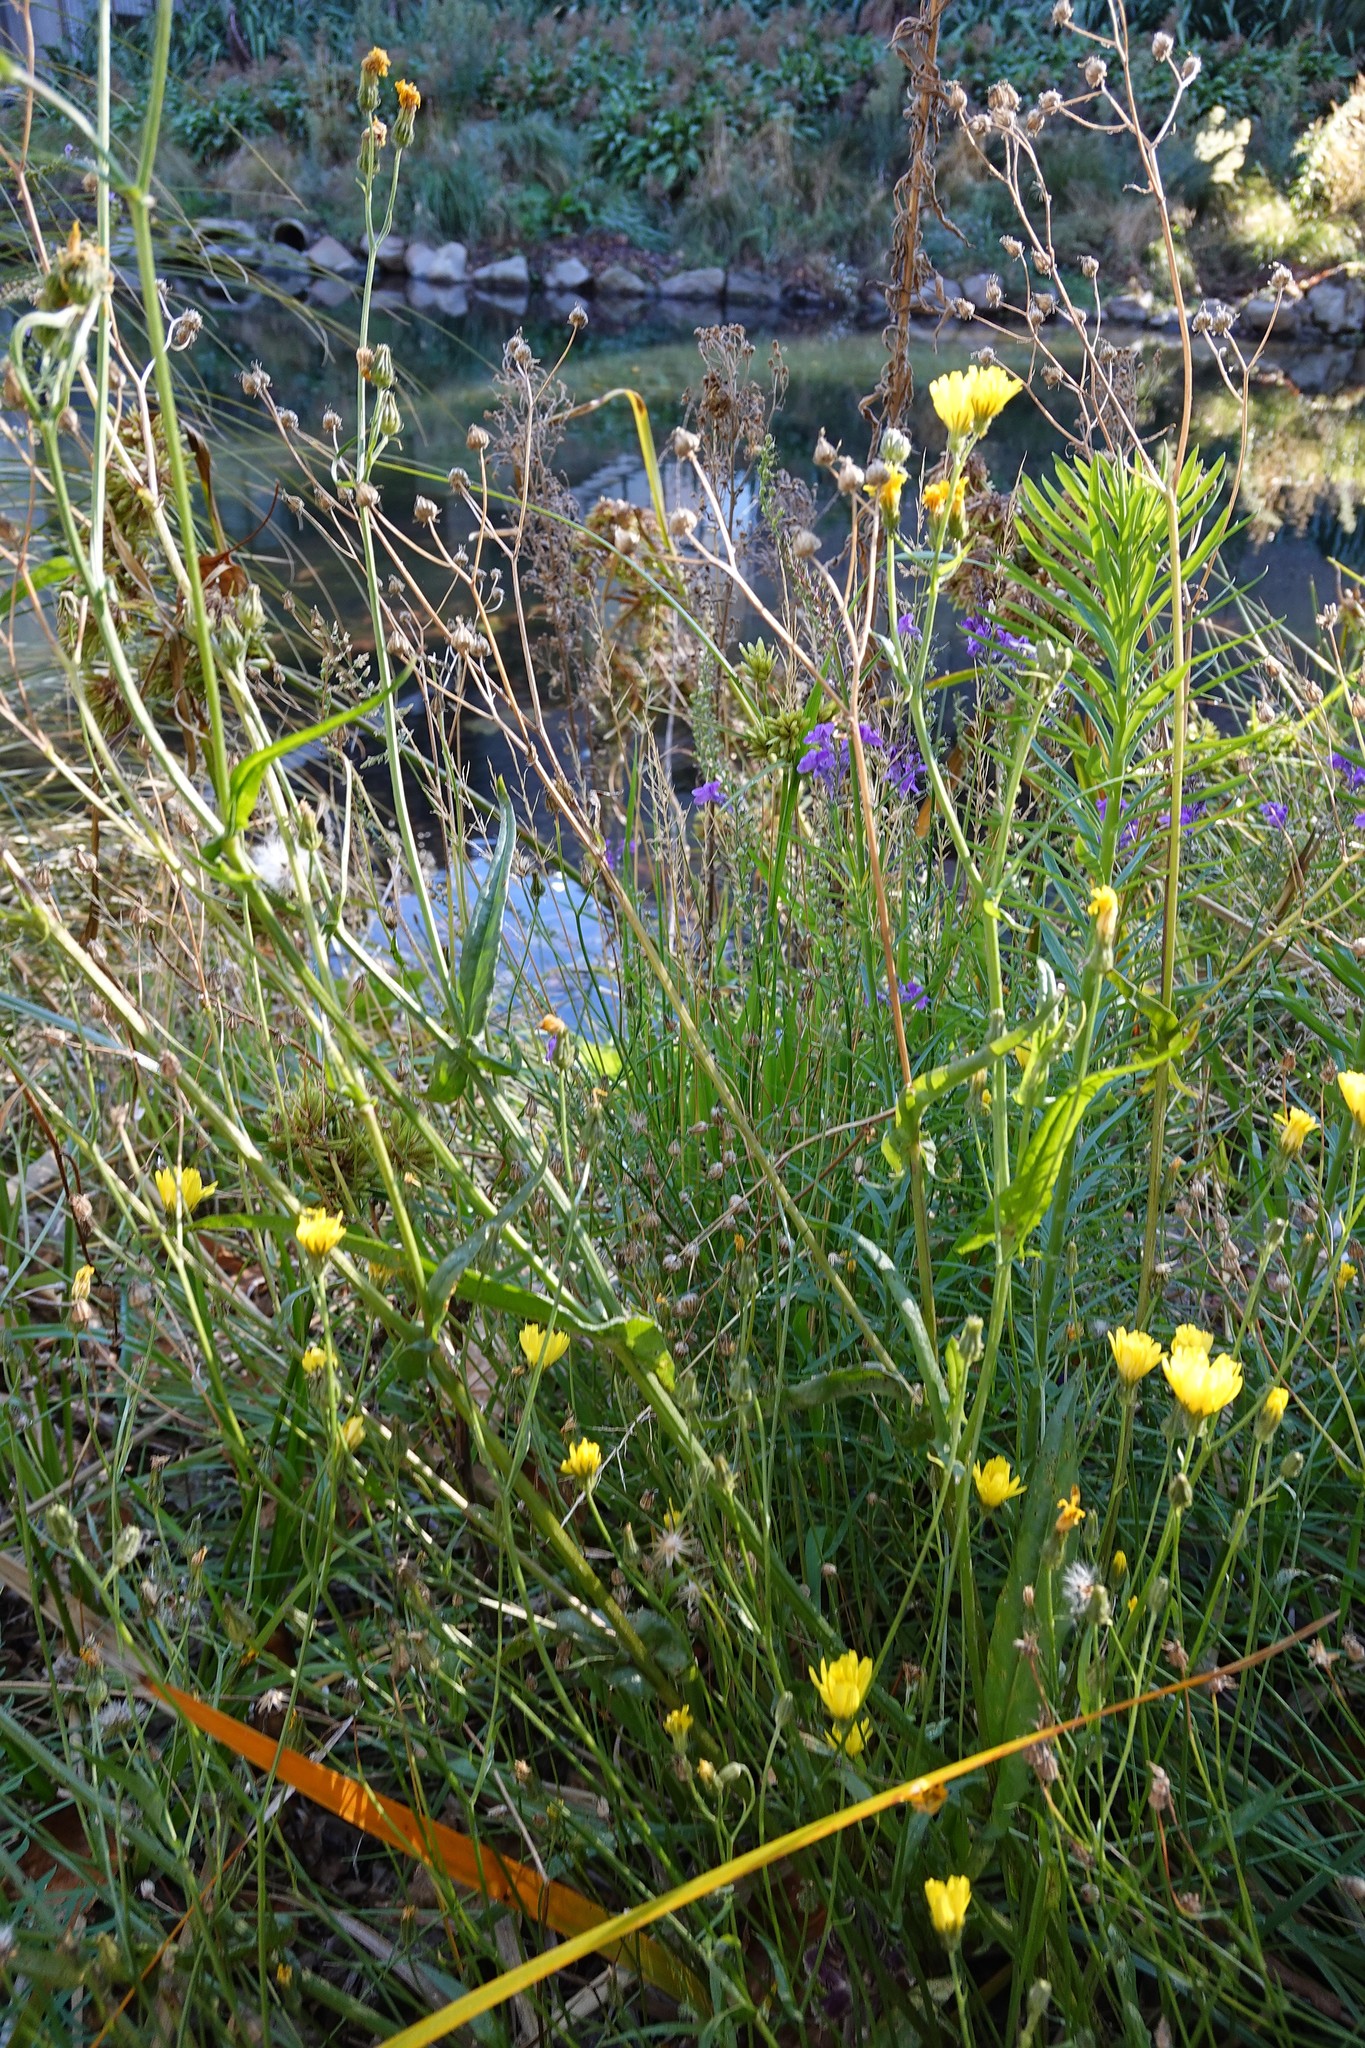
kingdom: Plantae
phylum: Tracheophyta
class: Magnoliopsida
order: Asterales
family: Asteraceae
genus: Crepis
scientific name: Crepis capillaris
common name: Smooth hawksbeard
